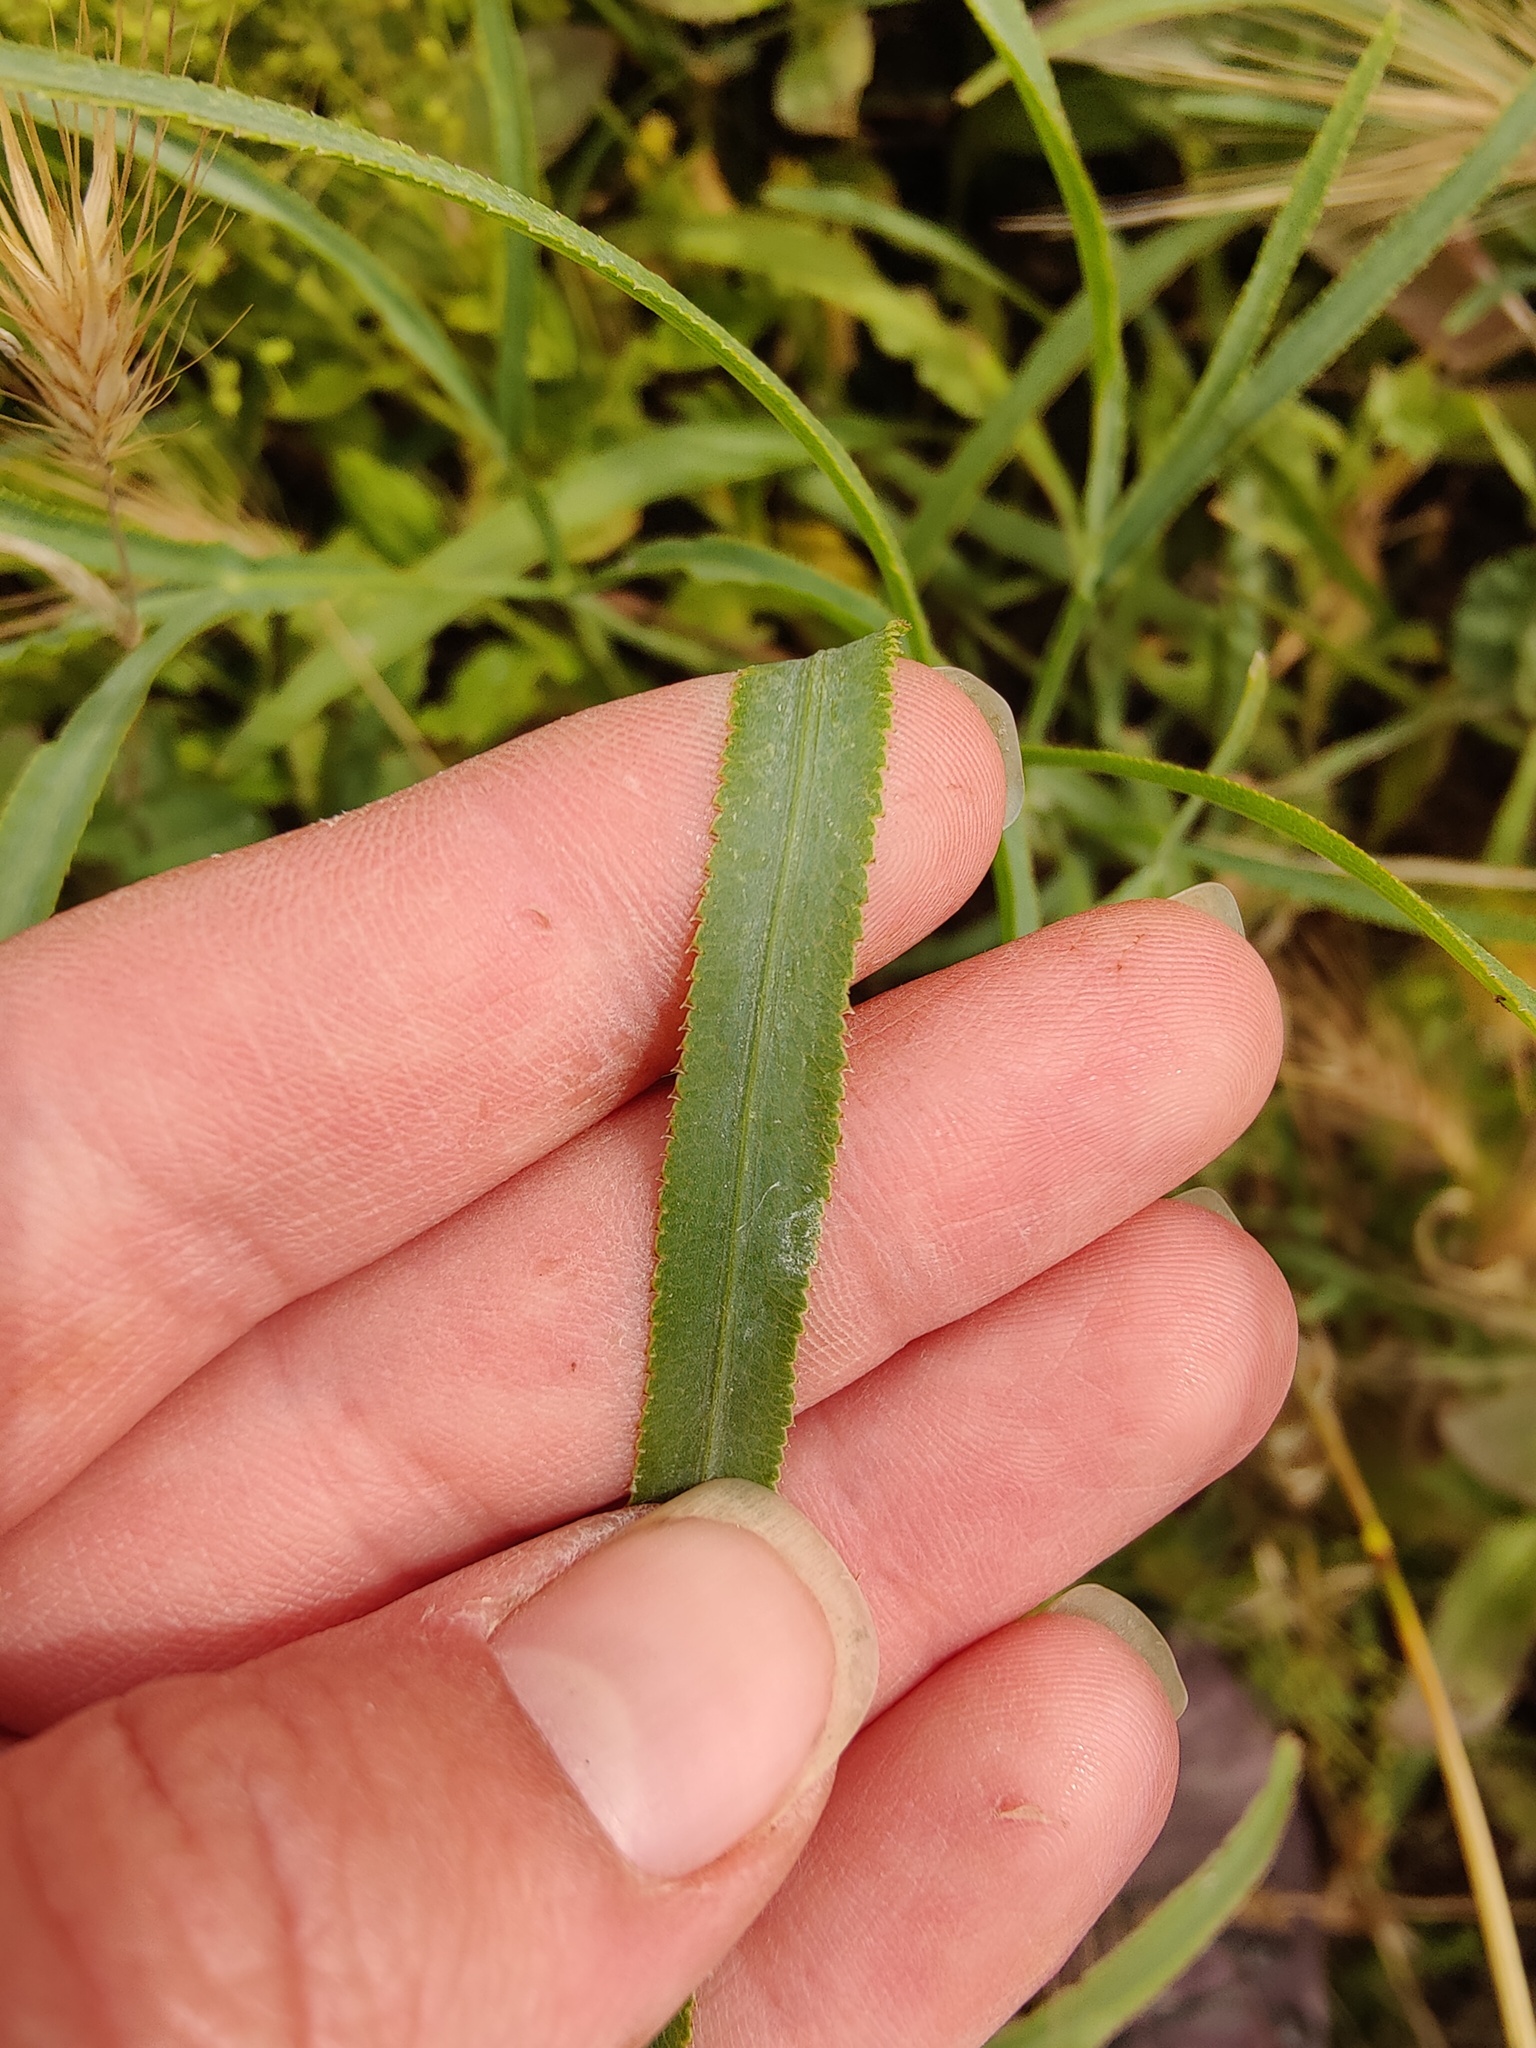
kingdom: Plantae
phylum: Tracheophyta
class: Magnoliopsida
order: Apiales
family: Apiaceae
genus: Falcaria
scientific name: Falcaria vulgaris
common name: Longleaf
